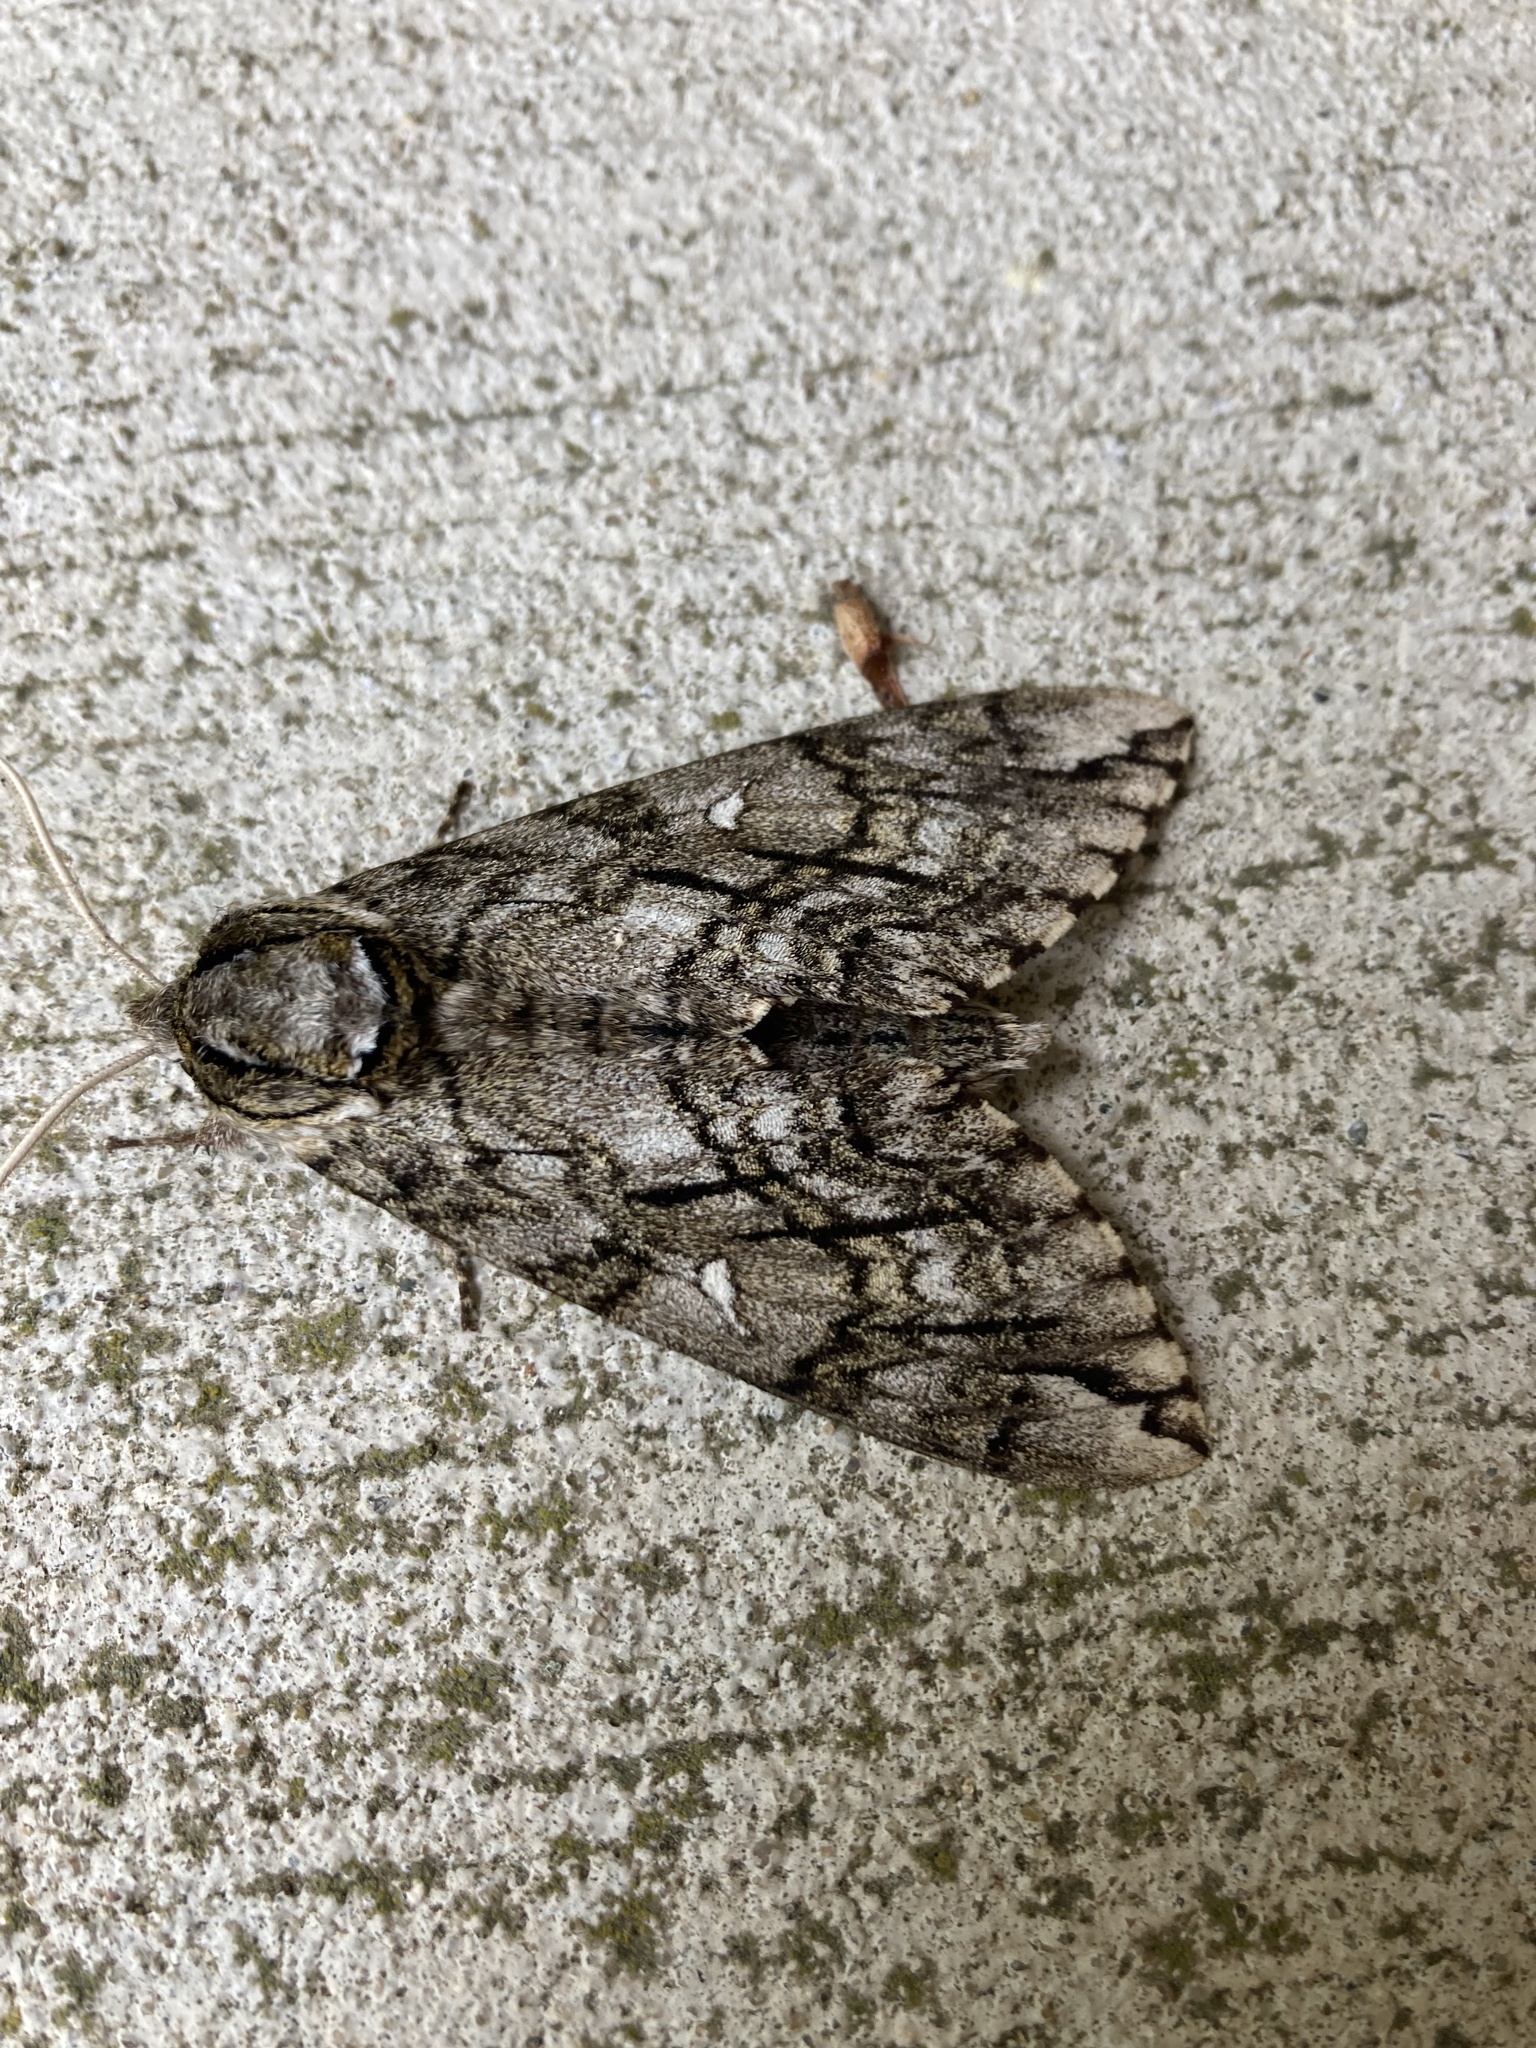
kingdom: Animalia
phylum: Arthropoda
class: Insecta
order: Lepidoptera
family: Sphingidae
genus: Ceratomia
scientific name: Ceratomia undulosa
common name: Waved sphinx
